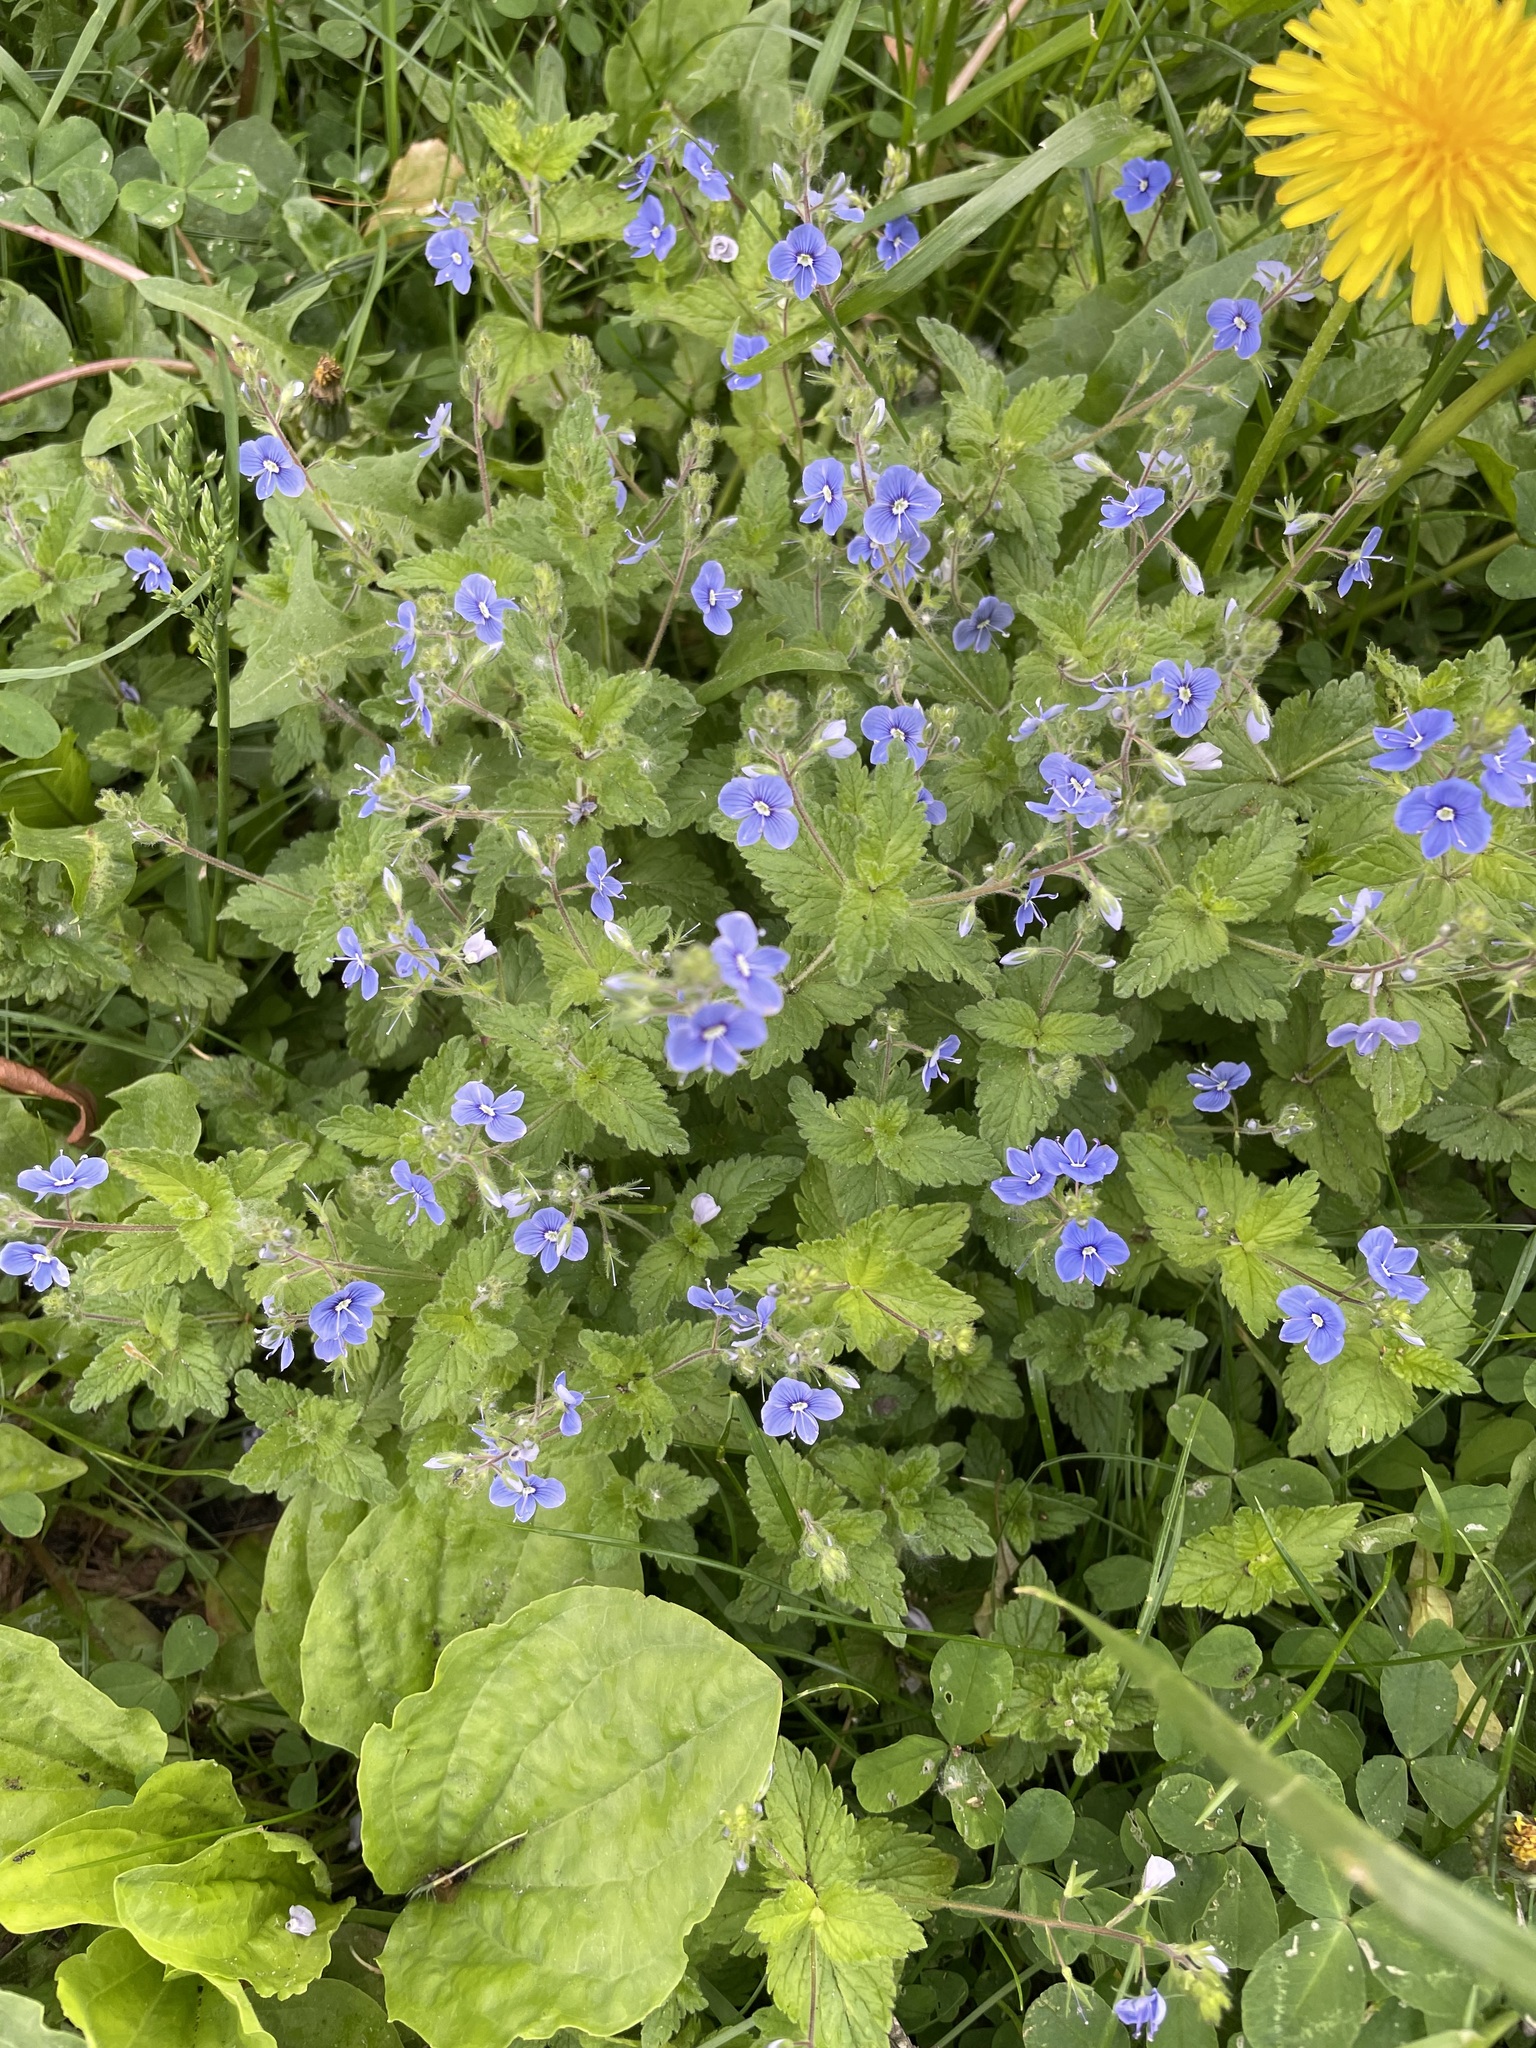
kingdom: Plantae
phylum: Tracheophyta
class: Magnoliopsida
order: Lamiales
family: Plantaginaceae
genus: Veronica
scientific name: Veronica chamaedrys
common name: Germander speedwell
